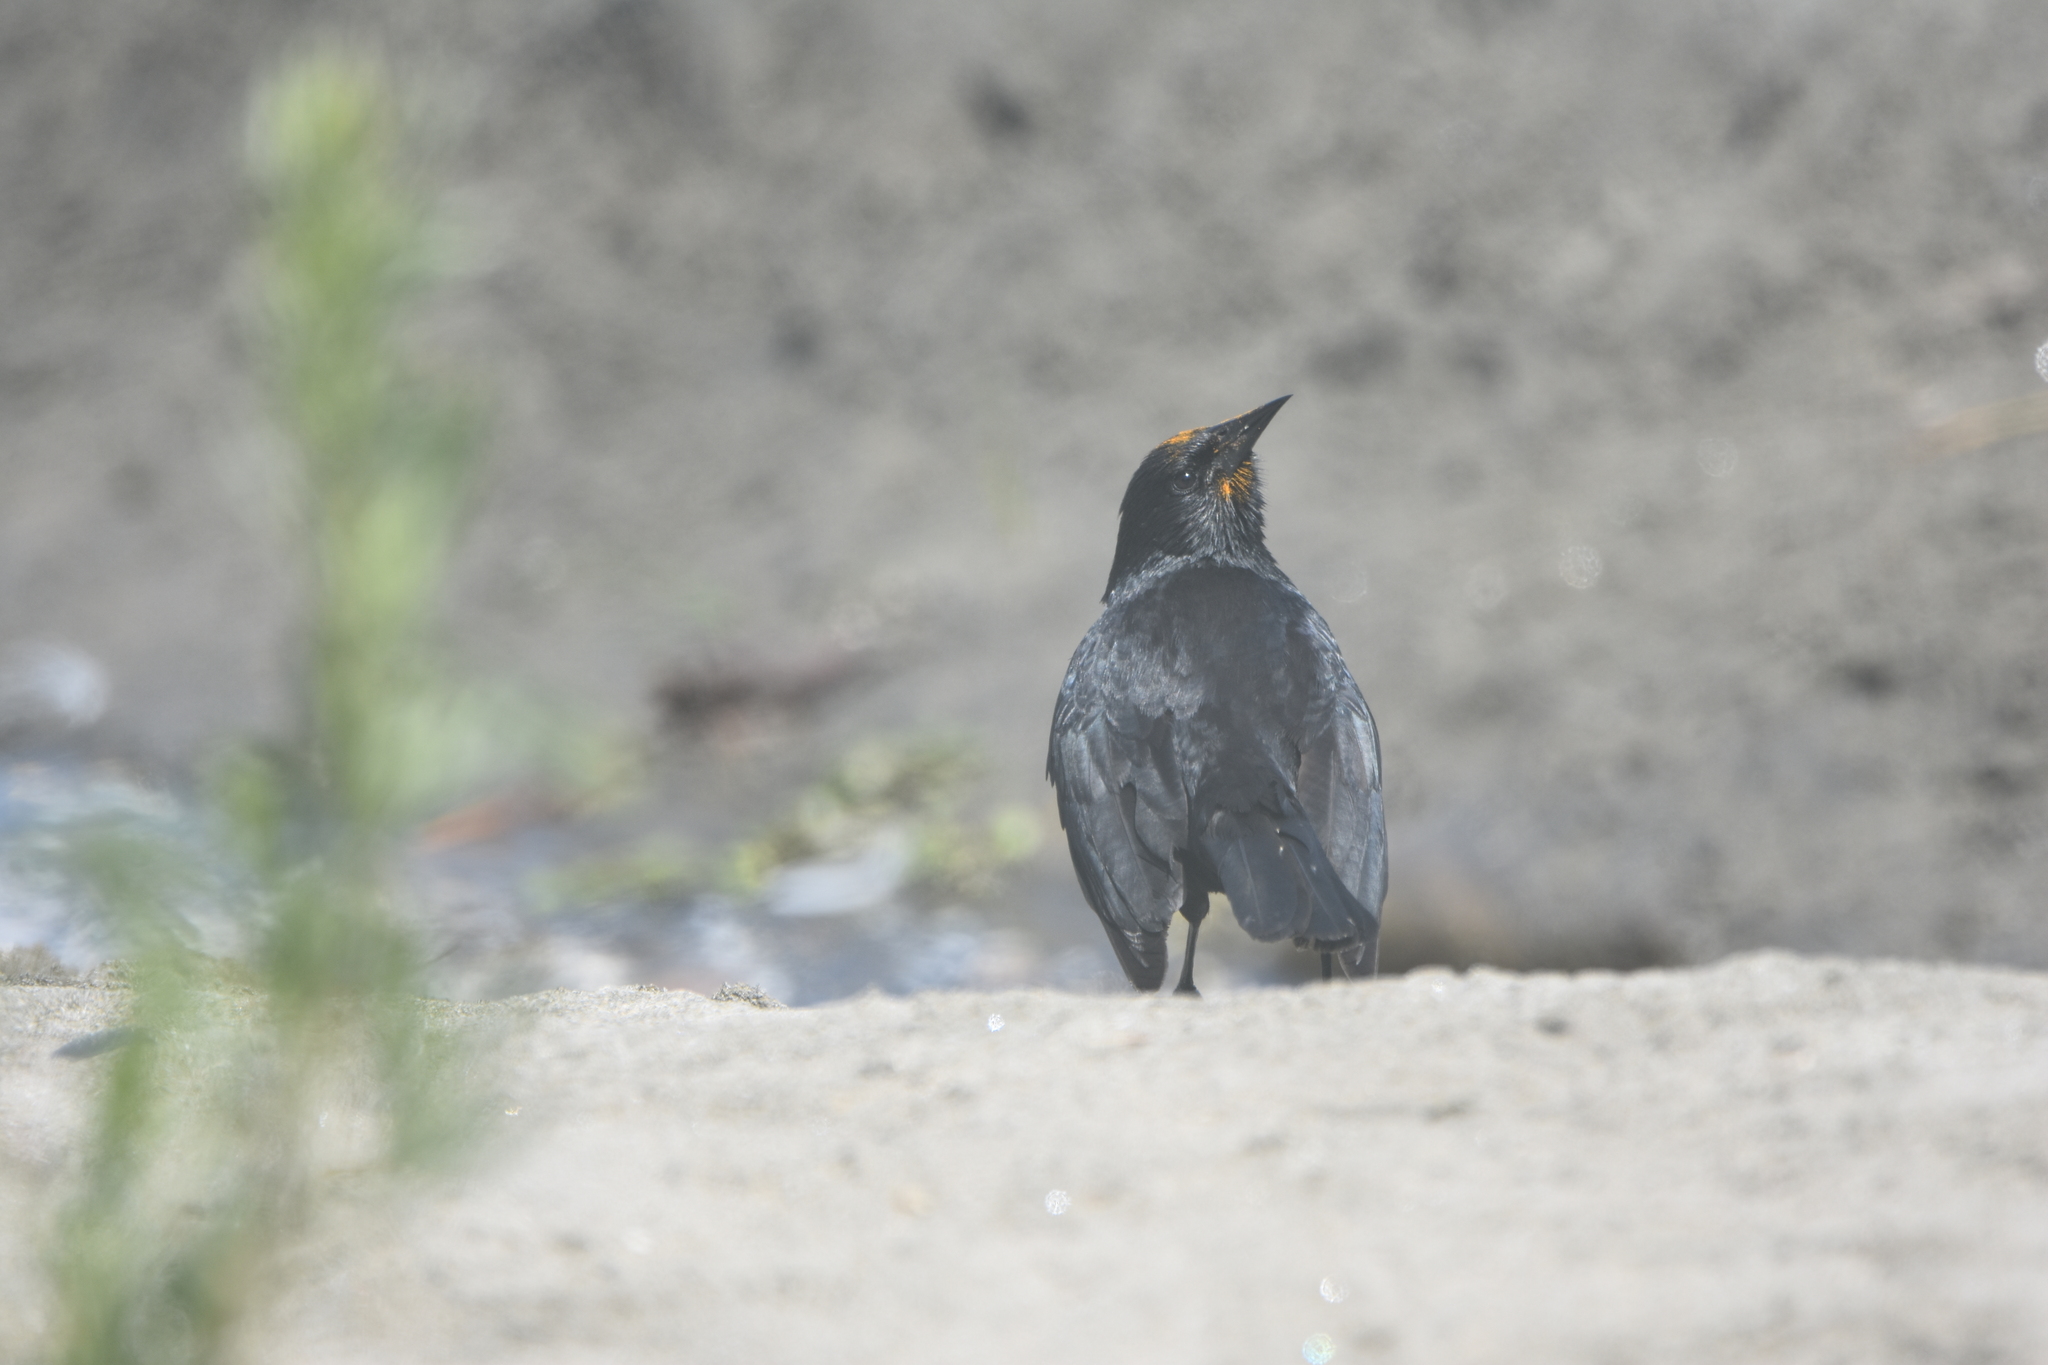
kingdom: Animalia
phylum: Chordata
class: Aves
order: Passeriformes
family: Icteridae
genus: Curaeus
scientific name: Curaeus curaeus
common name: Austral blackbird
